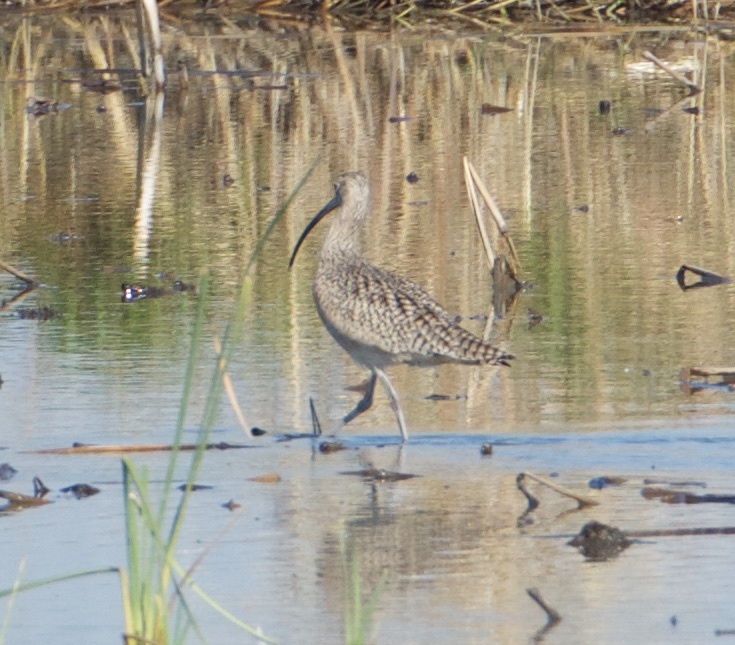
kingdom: Animalia
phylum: Chordata
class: Aves
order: Charadriiformes
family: Scolopacidae
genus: Numenius
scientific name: Numenius americanus
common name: Long-billed curlew
